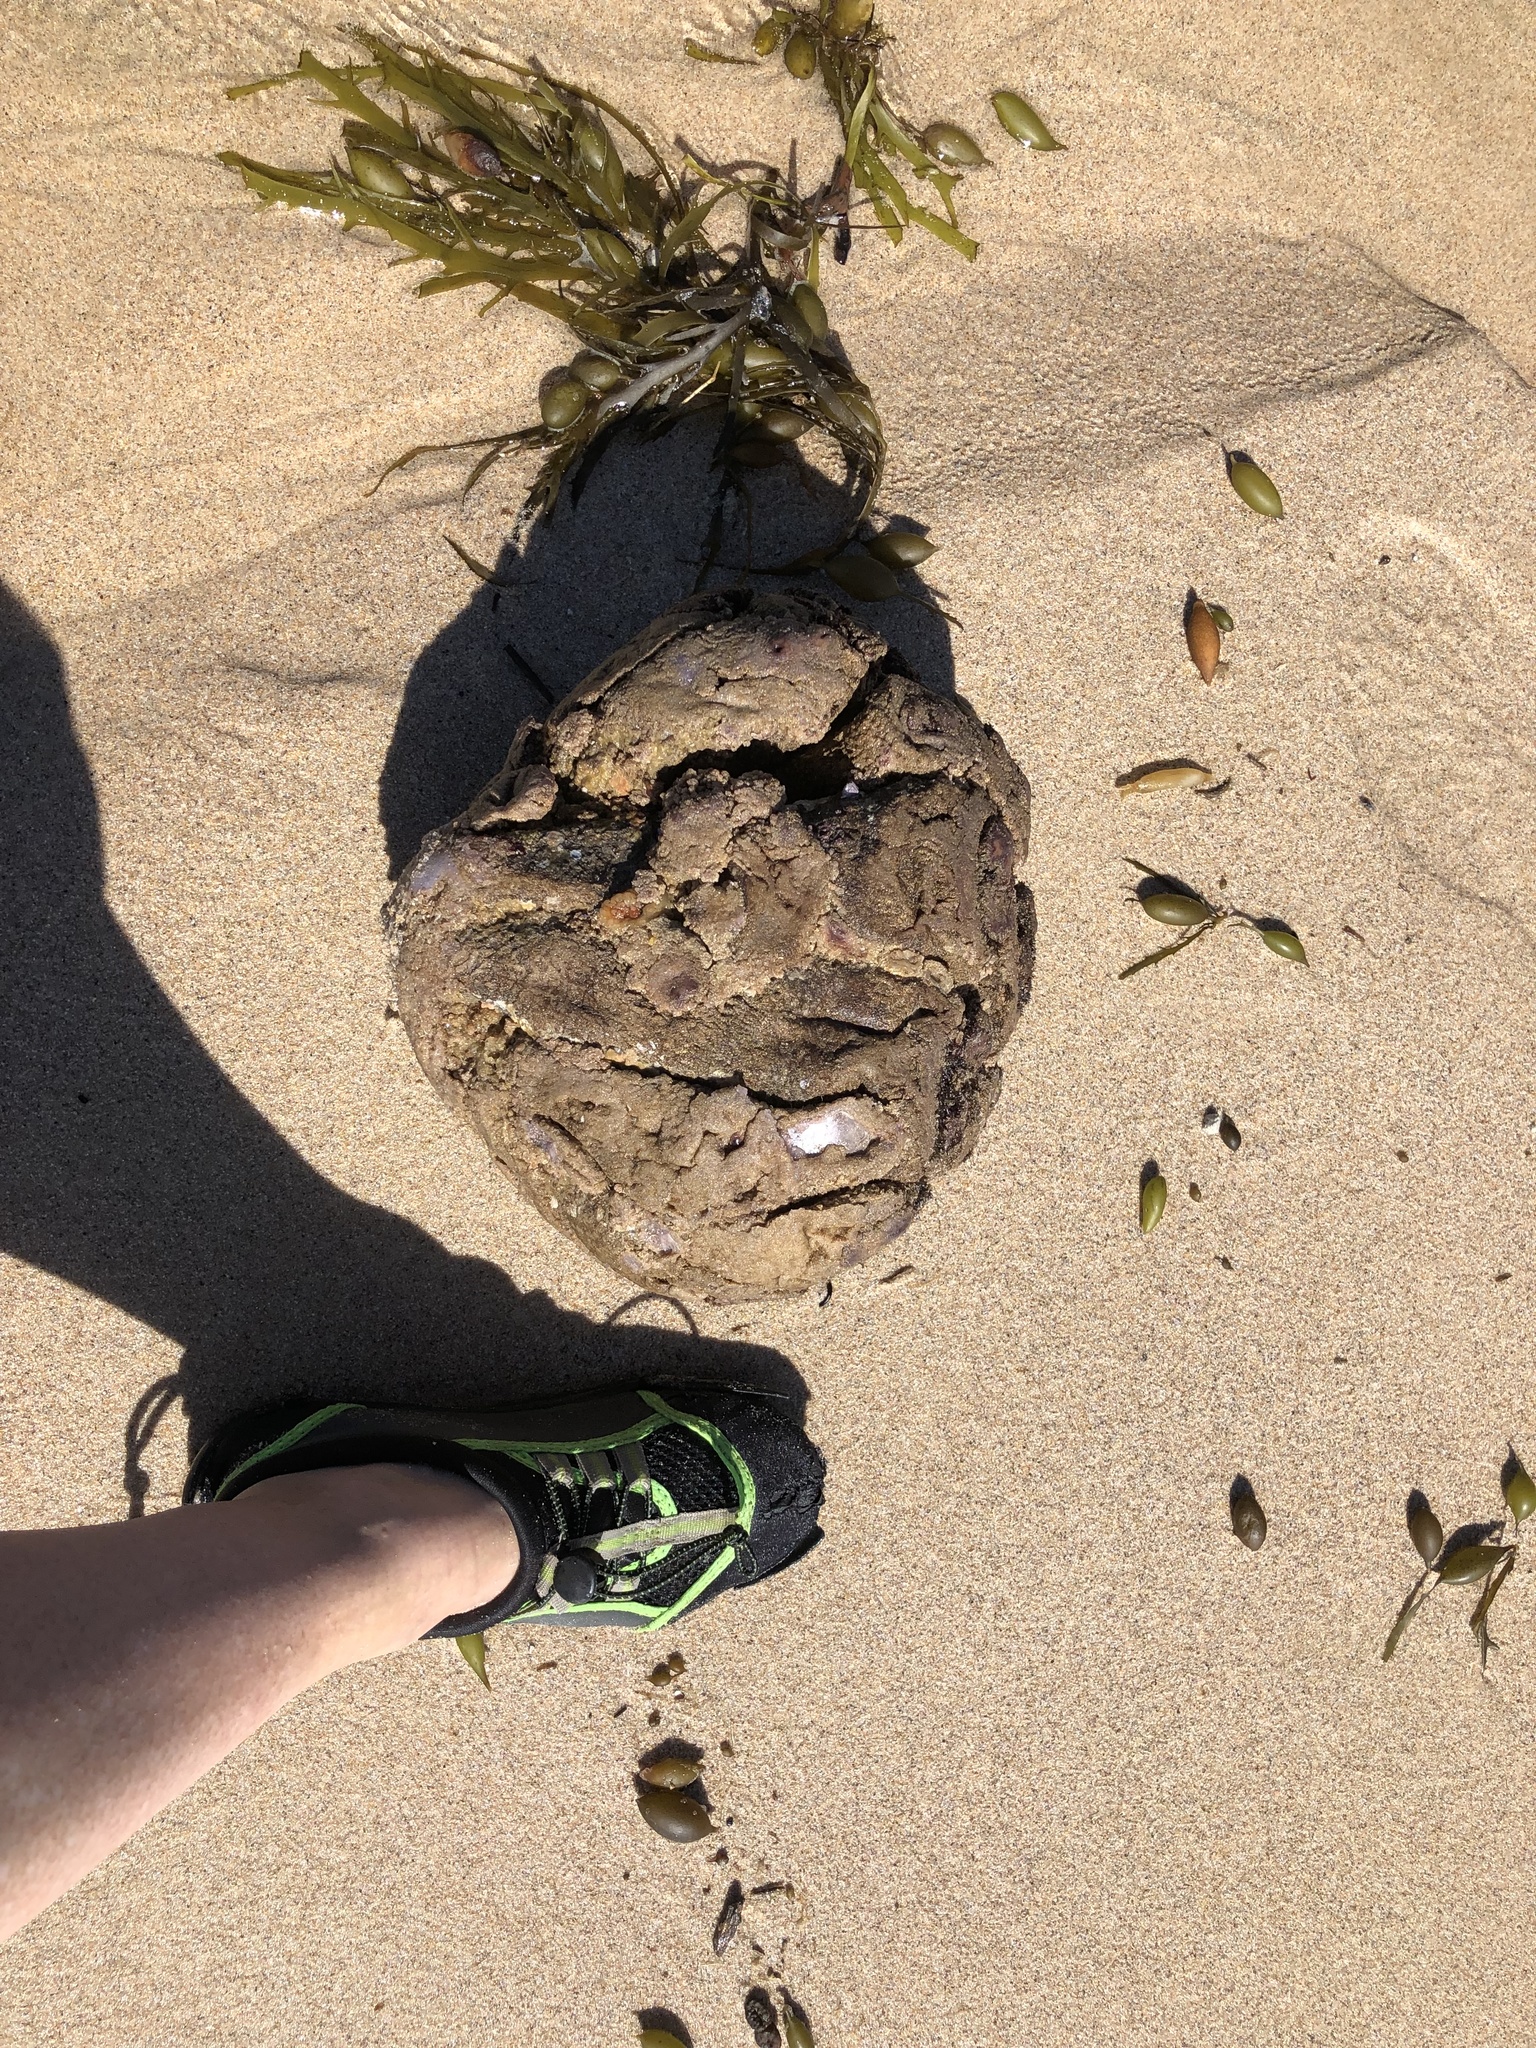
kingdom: Animalia
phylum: Chordata
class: Ascidiacea
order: Stolidobranchia
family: Pyuridae
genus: Pyura
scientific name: Pyura praeputialis
